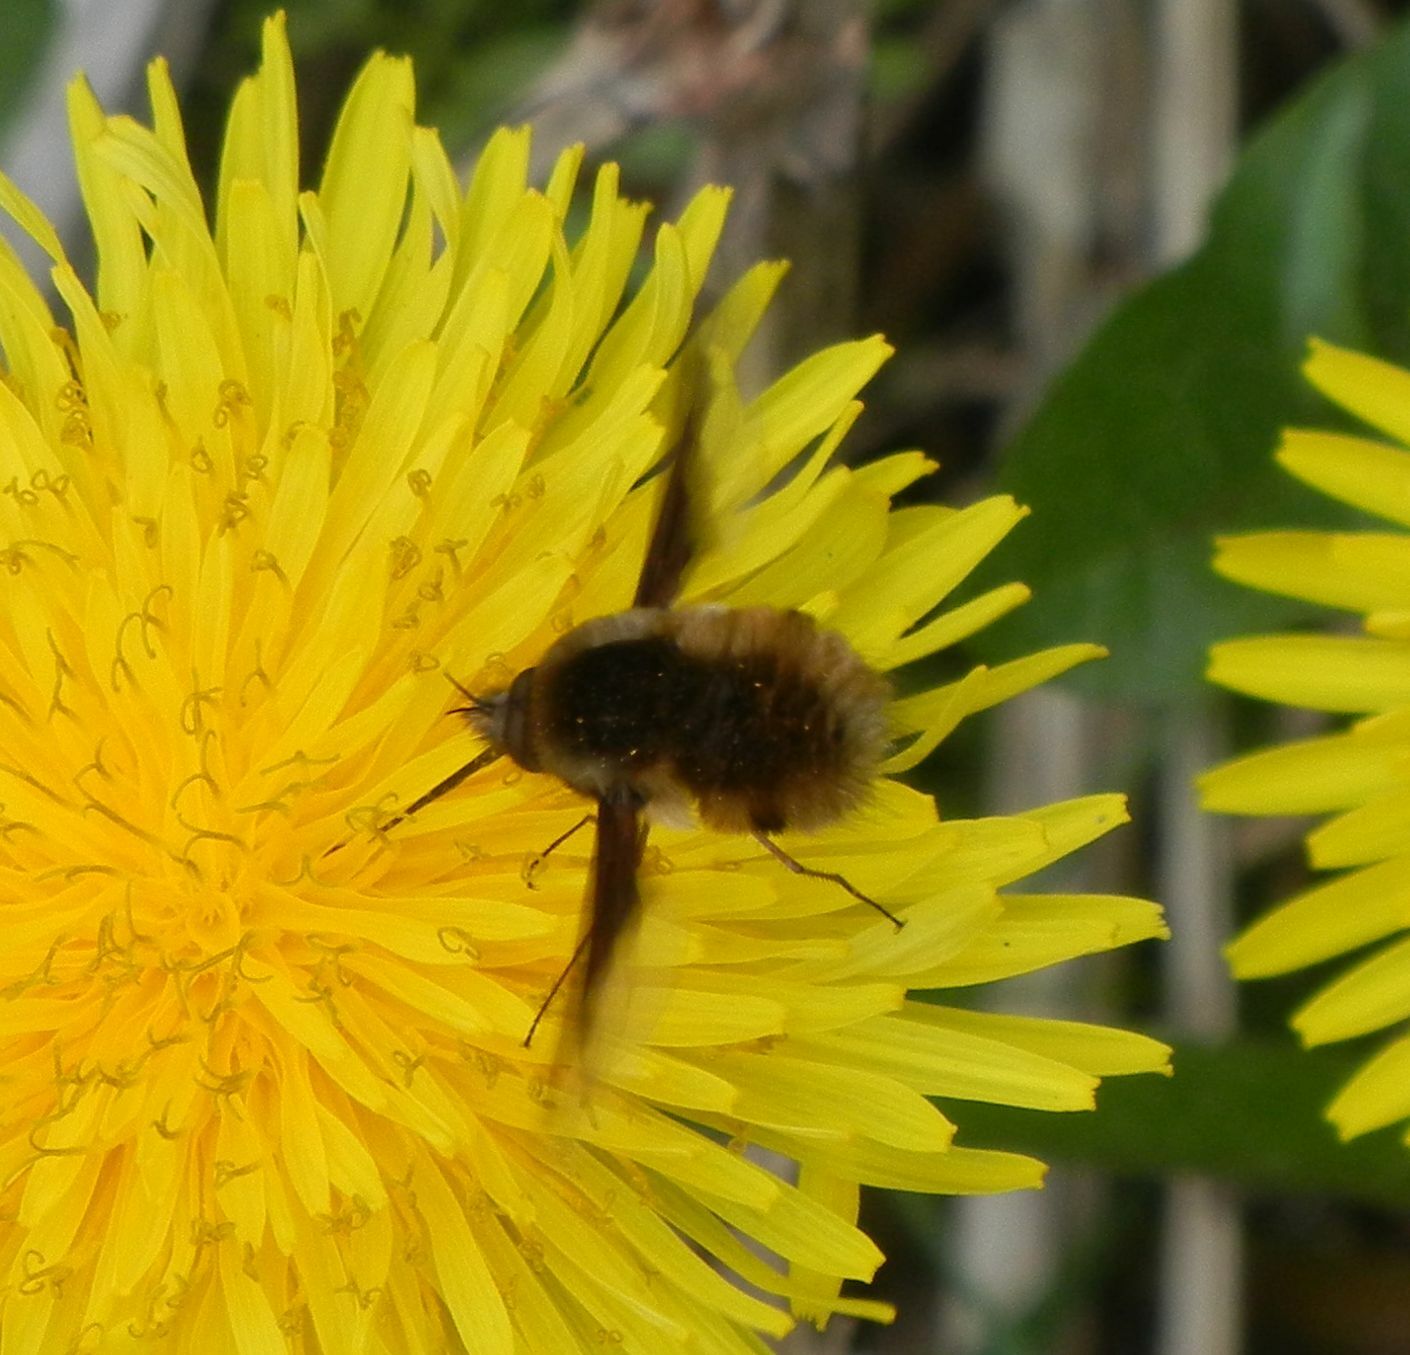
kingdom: Animalia
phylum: Arthropoda
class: Insecta
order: Diptera
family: Bombyliidae
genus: Bombylius
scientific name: Bombylius major
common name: Bee fly
